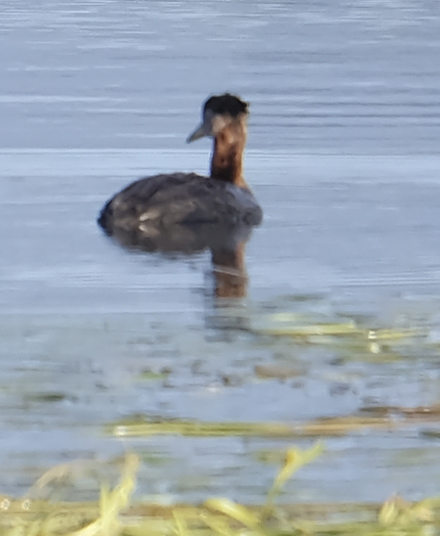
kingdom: Animalia
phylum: Chordata
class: Aves
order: Podicipediformes
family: Podicipedidae
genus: Podiceps
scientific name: Podiceps grisegena
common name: Red-necked grebe
